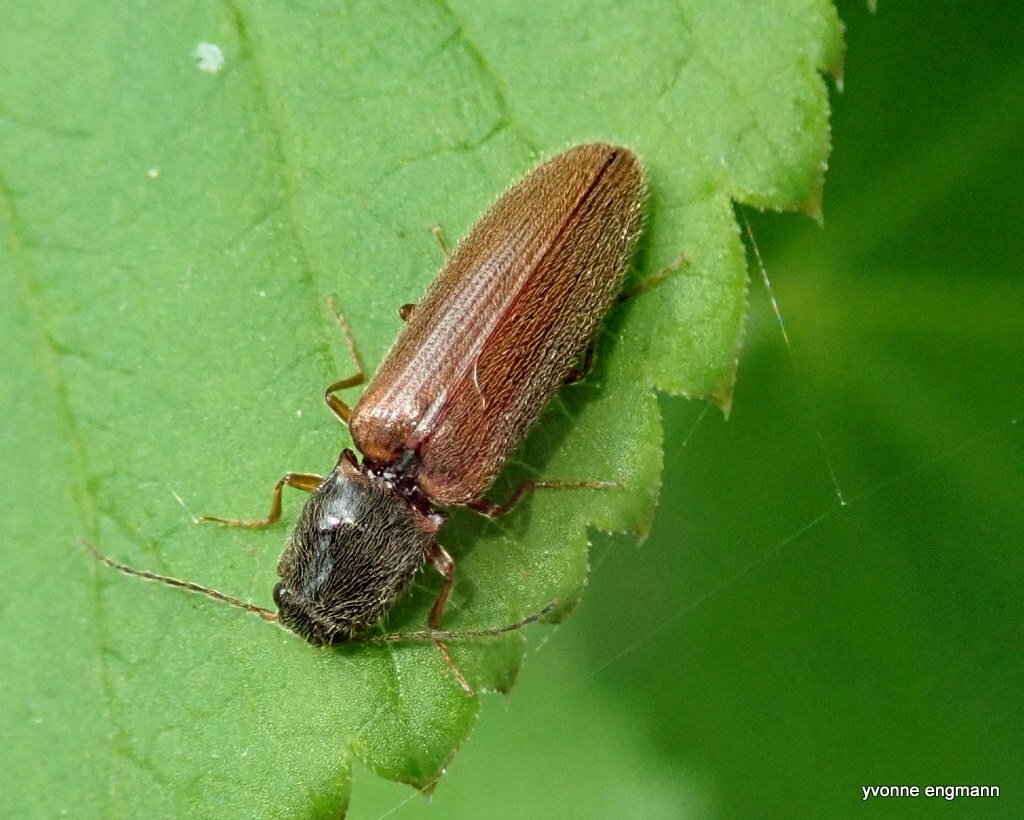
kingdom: Animalia
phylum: Arthropoda
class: Insecta
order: Coleoptera
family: Elateridae
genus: Athous
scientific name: Athous subfuscus
